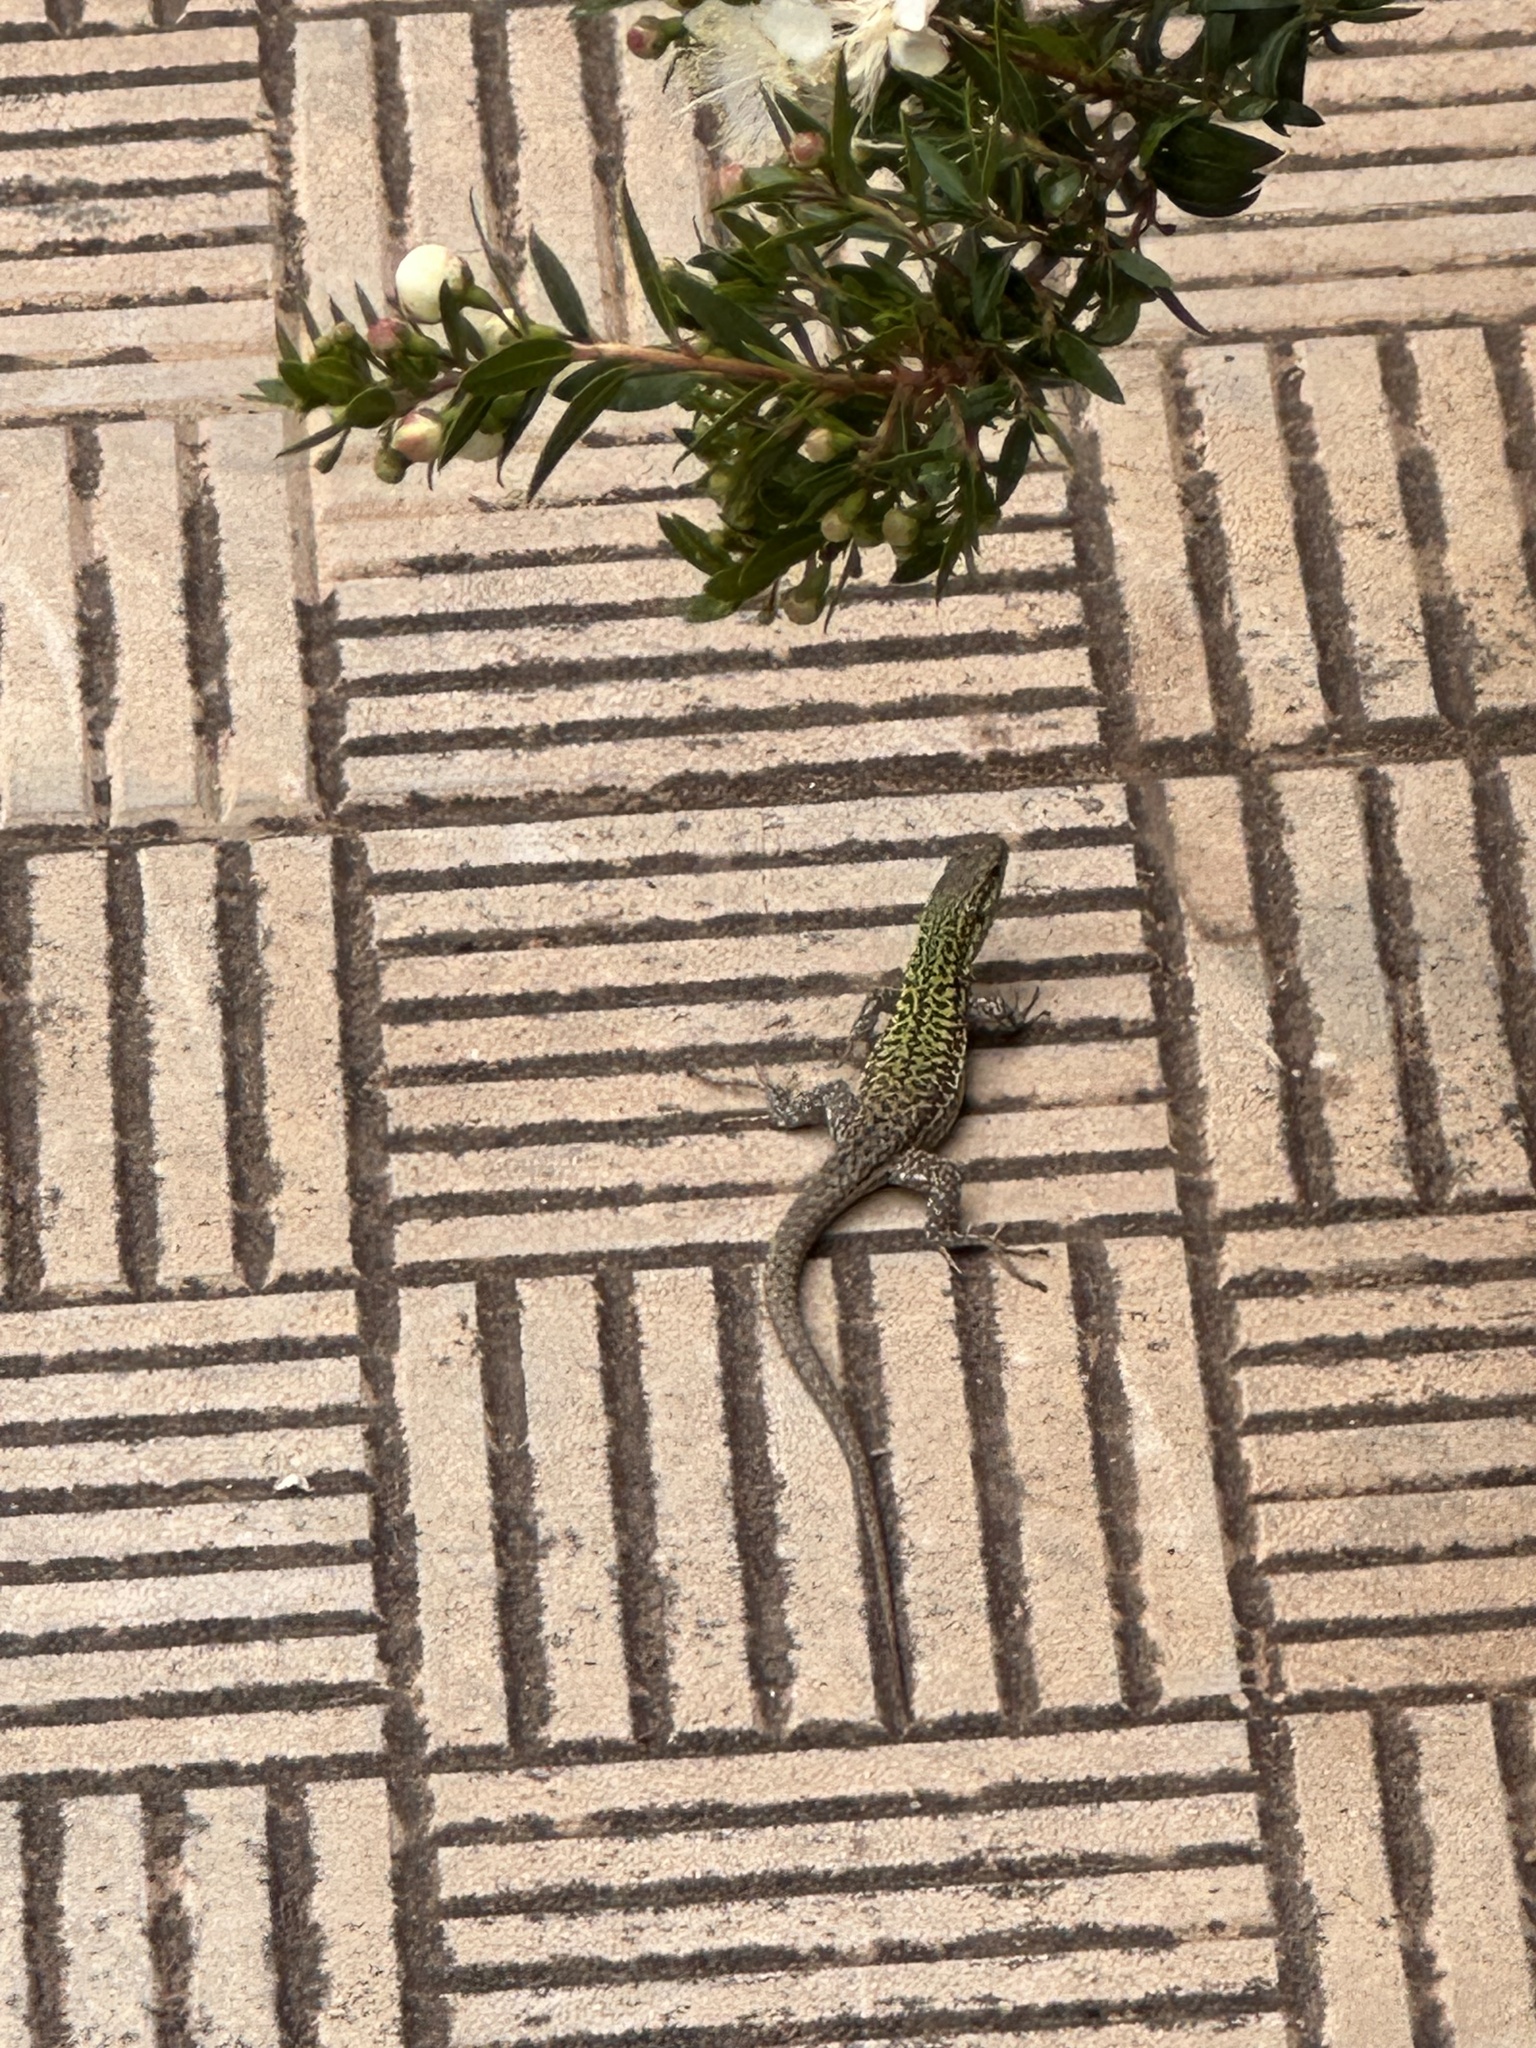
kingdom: Animalia
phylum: Chordata
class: Squamata
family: Lacertidae
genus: Podarcis
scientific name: Podarcis siculus
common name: Italian wall lizard
